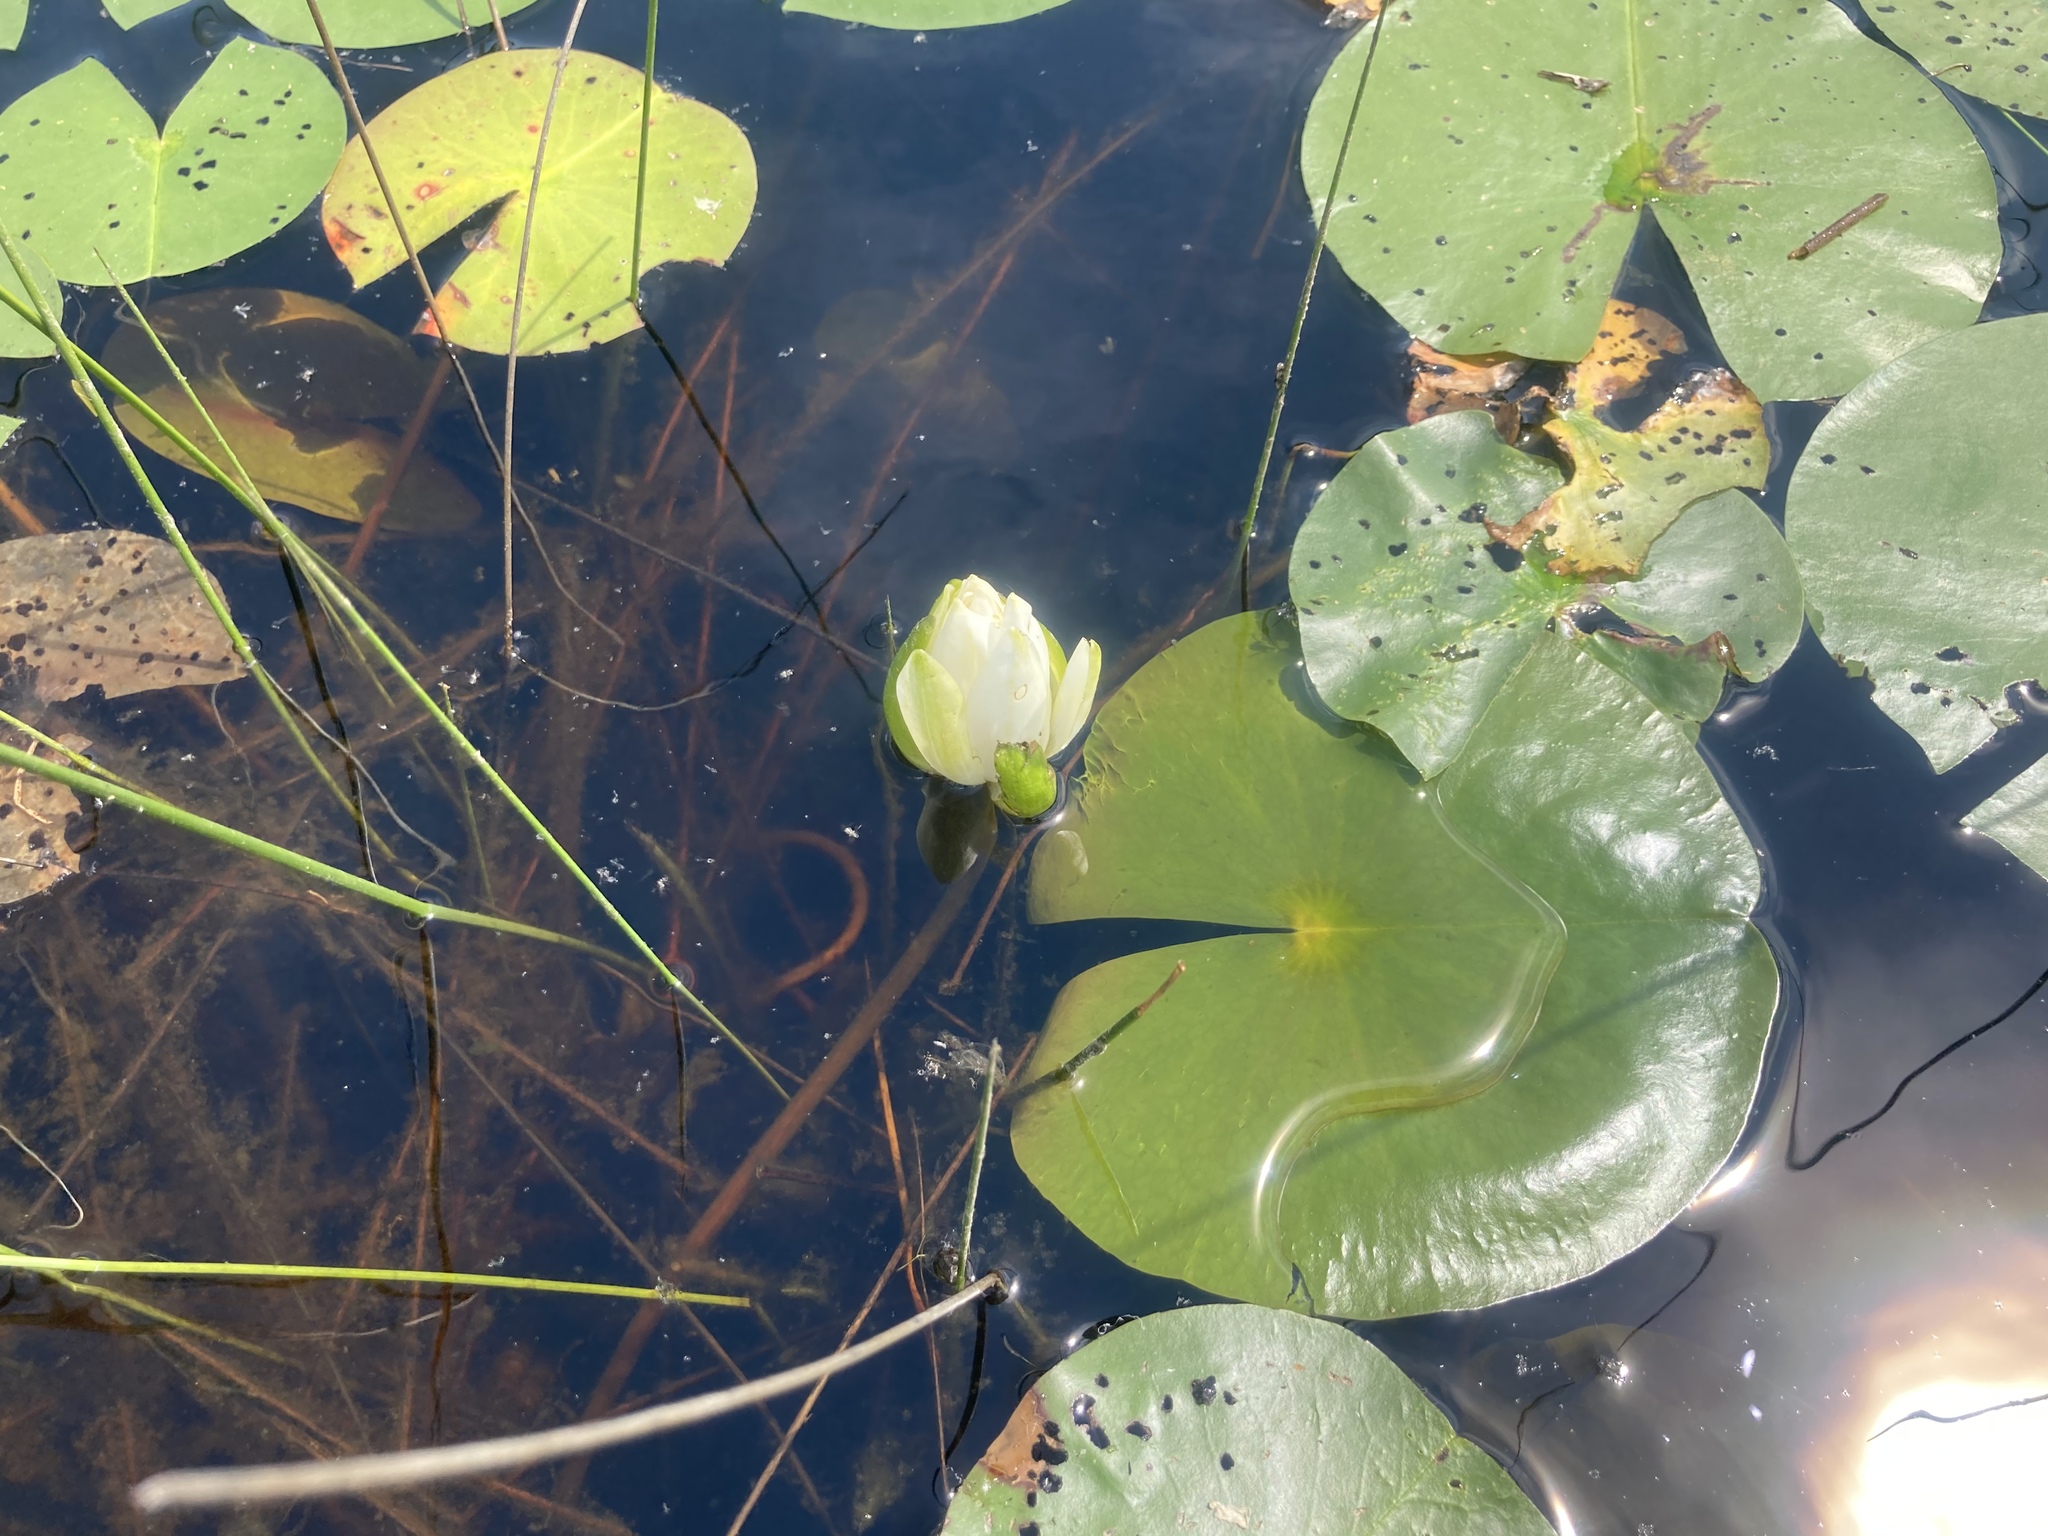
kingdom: Plantae
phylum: Tracheophyta
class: Magnoliopsida
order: Nymphaeales
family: Nymphaeaceae
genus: Nymphaea
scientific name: Nymphaea odorata
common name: Fragrant water-lily
